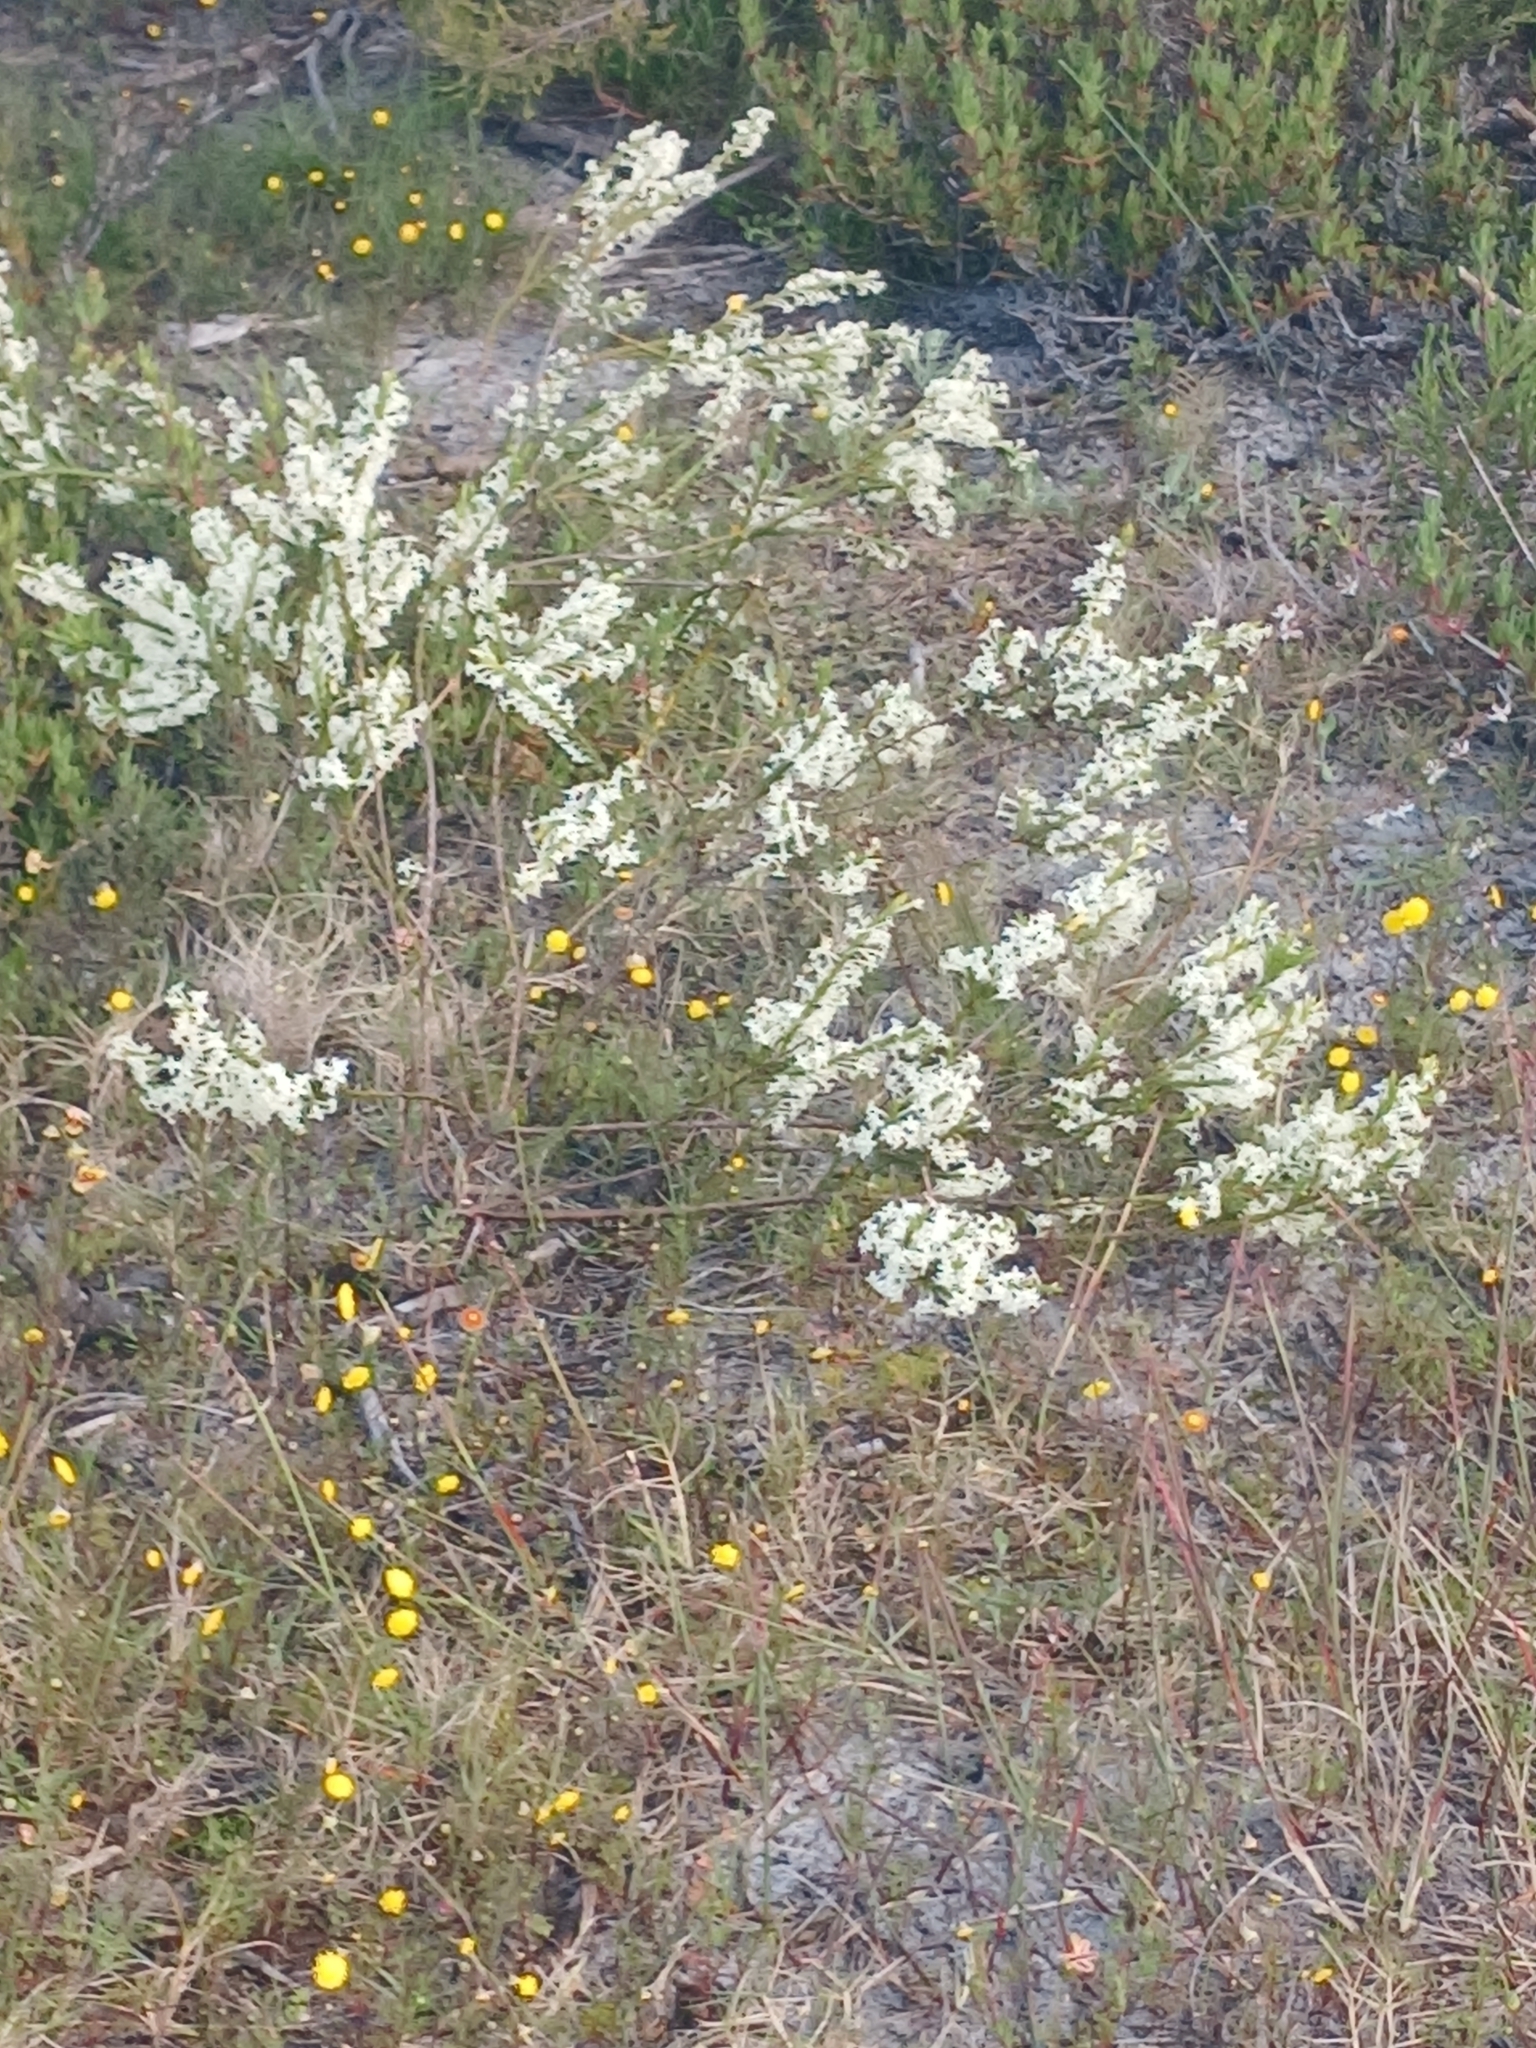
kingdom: Plantae
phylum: Tracheophyta
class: Magnoliopsida
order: Malvales
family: Thymelaeaceae
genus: Struthiola
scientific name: Struthiola ciliata
